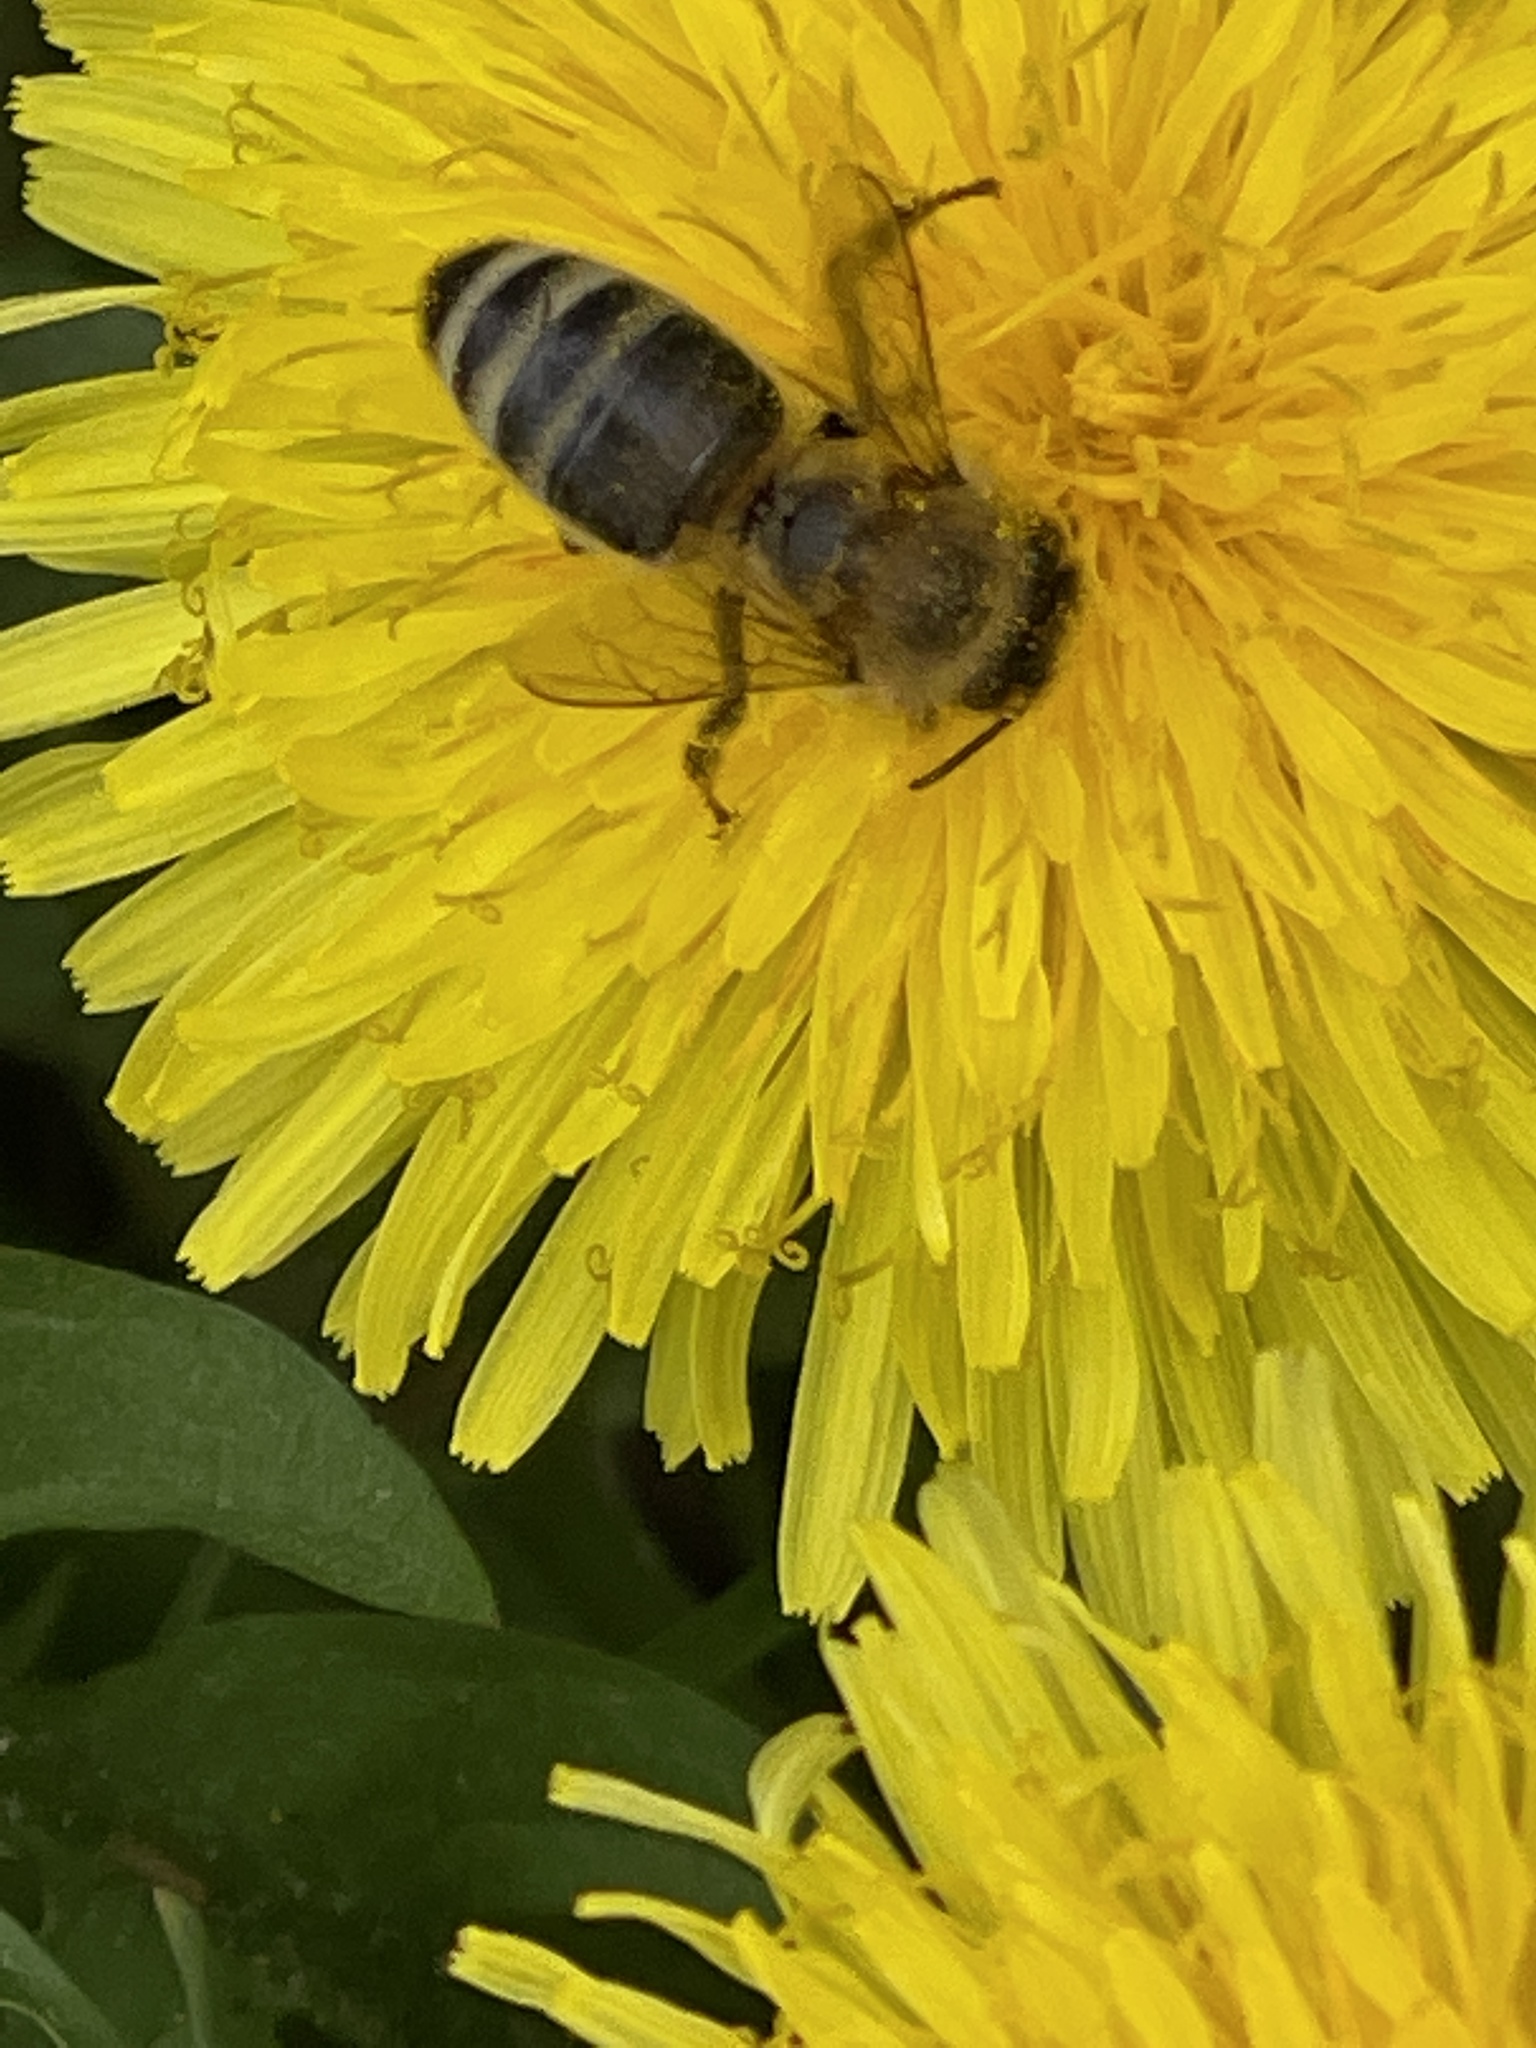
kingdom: Animalia
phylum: Arthropoda
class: Insecta
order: Hymenoptera
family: Apidae
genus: Apis
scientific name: Apis mellifera
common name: Honey bee
